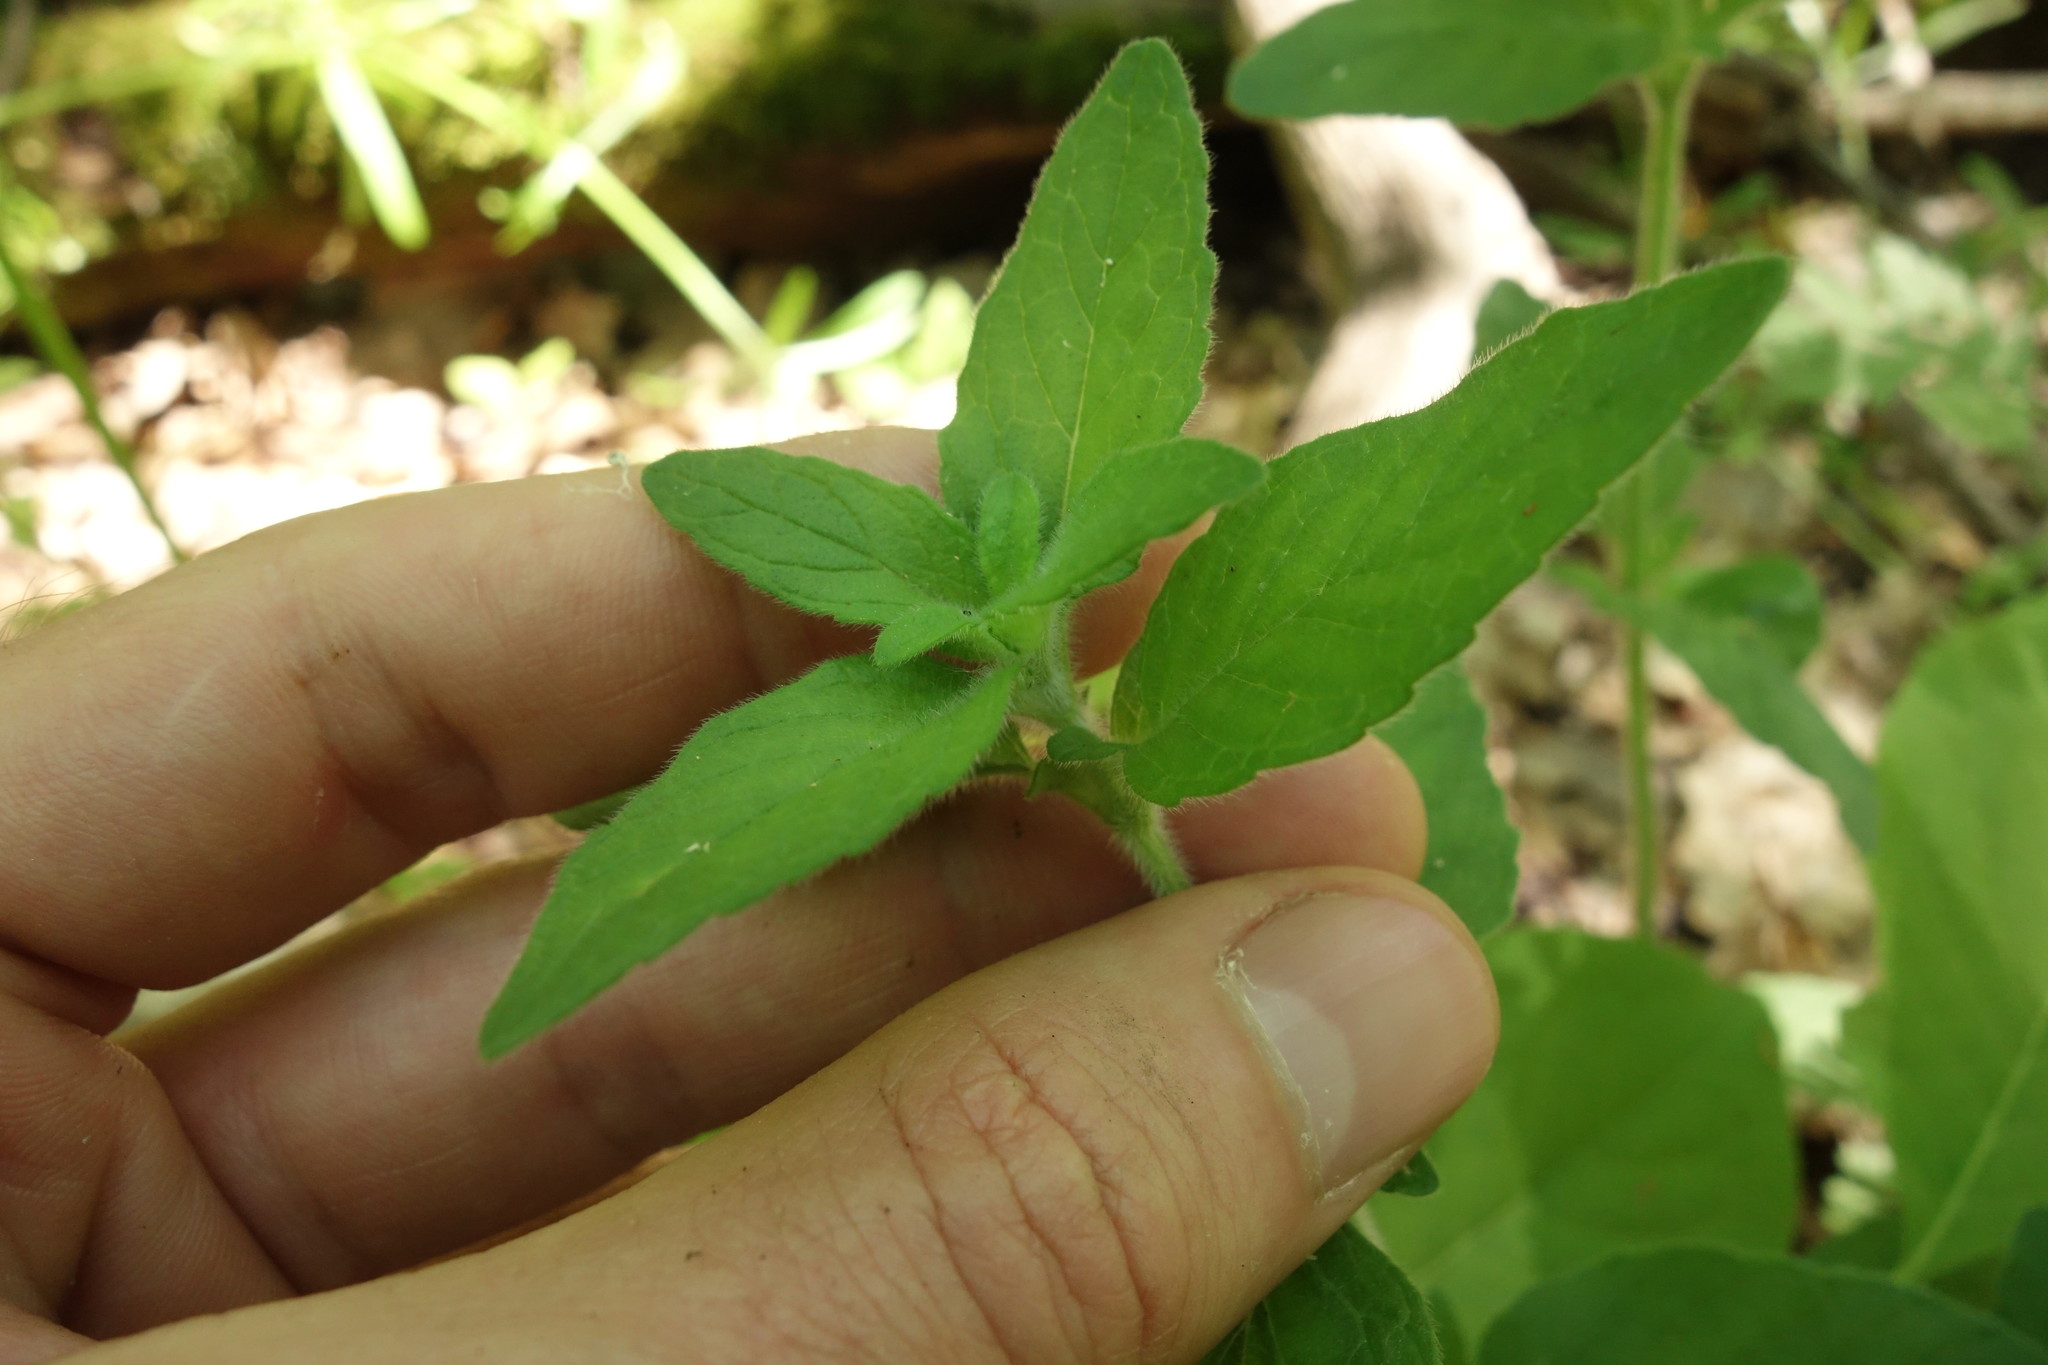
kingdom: Plantae
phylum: Tracheophyta
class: Magnoliopsida
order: Lamiales
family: Lamiaceae
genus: Origanum
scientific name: Origanum vulgare
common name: Wild marjoram
